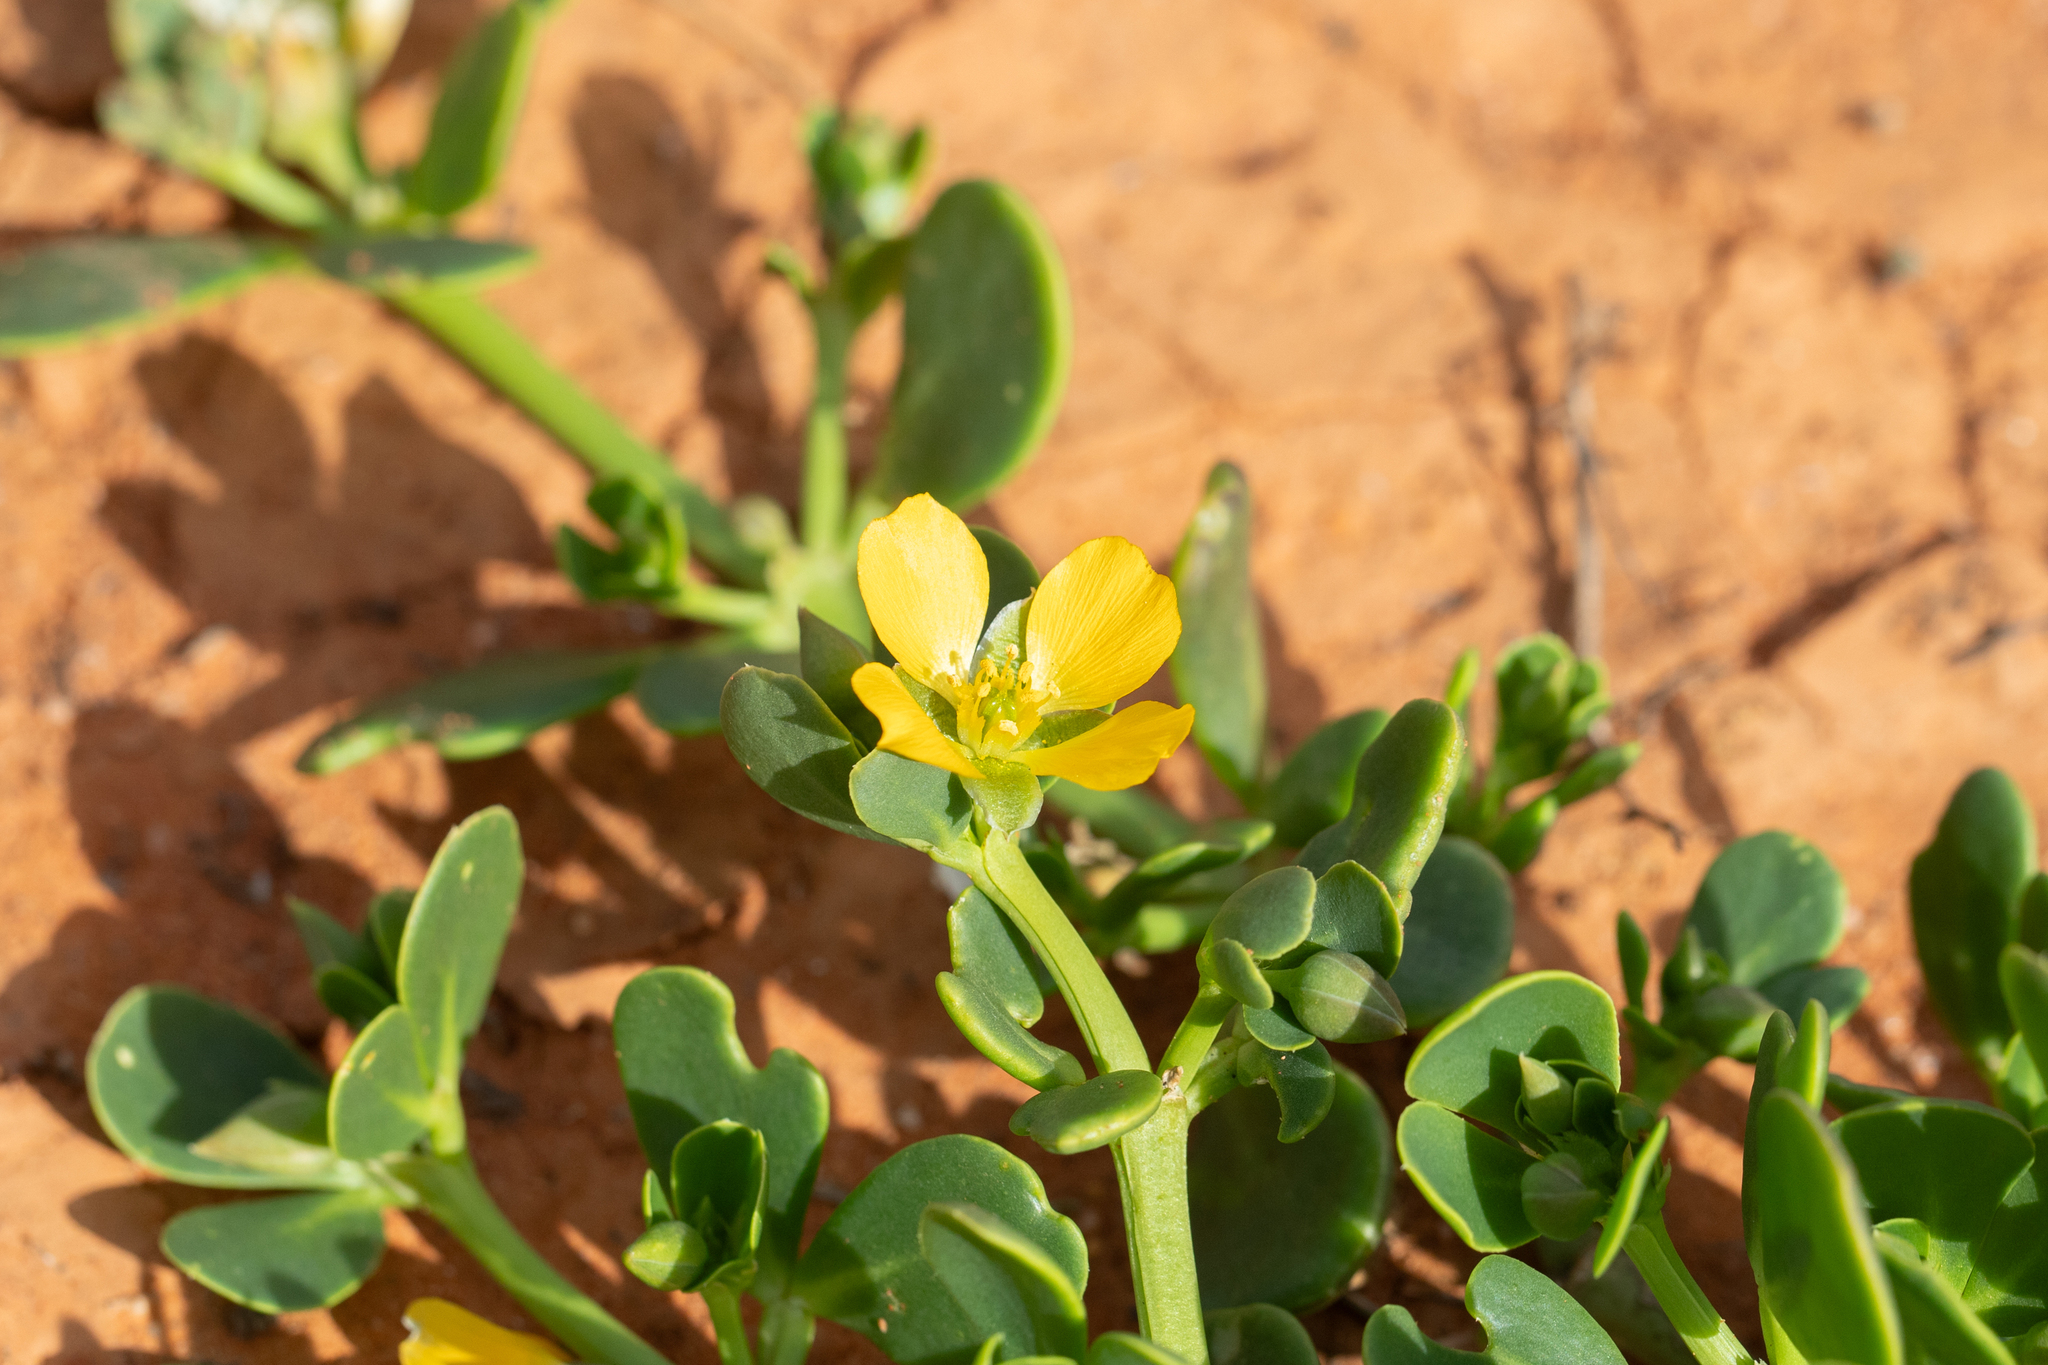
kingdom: Plantae
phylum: Tracheophyta
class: Magnoliopsida
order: Zygophyllales
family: Zygophyllaceae
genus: Roepera
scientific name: Roepera glauca
